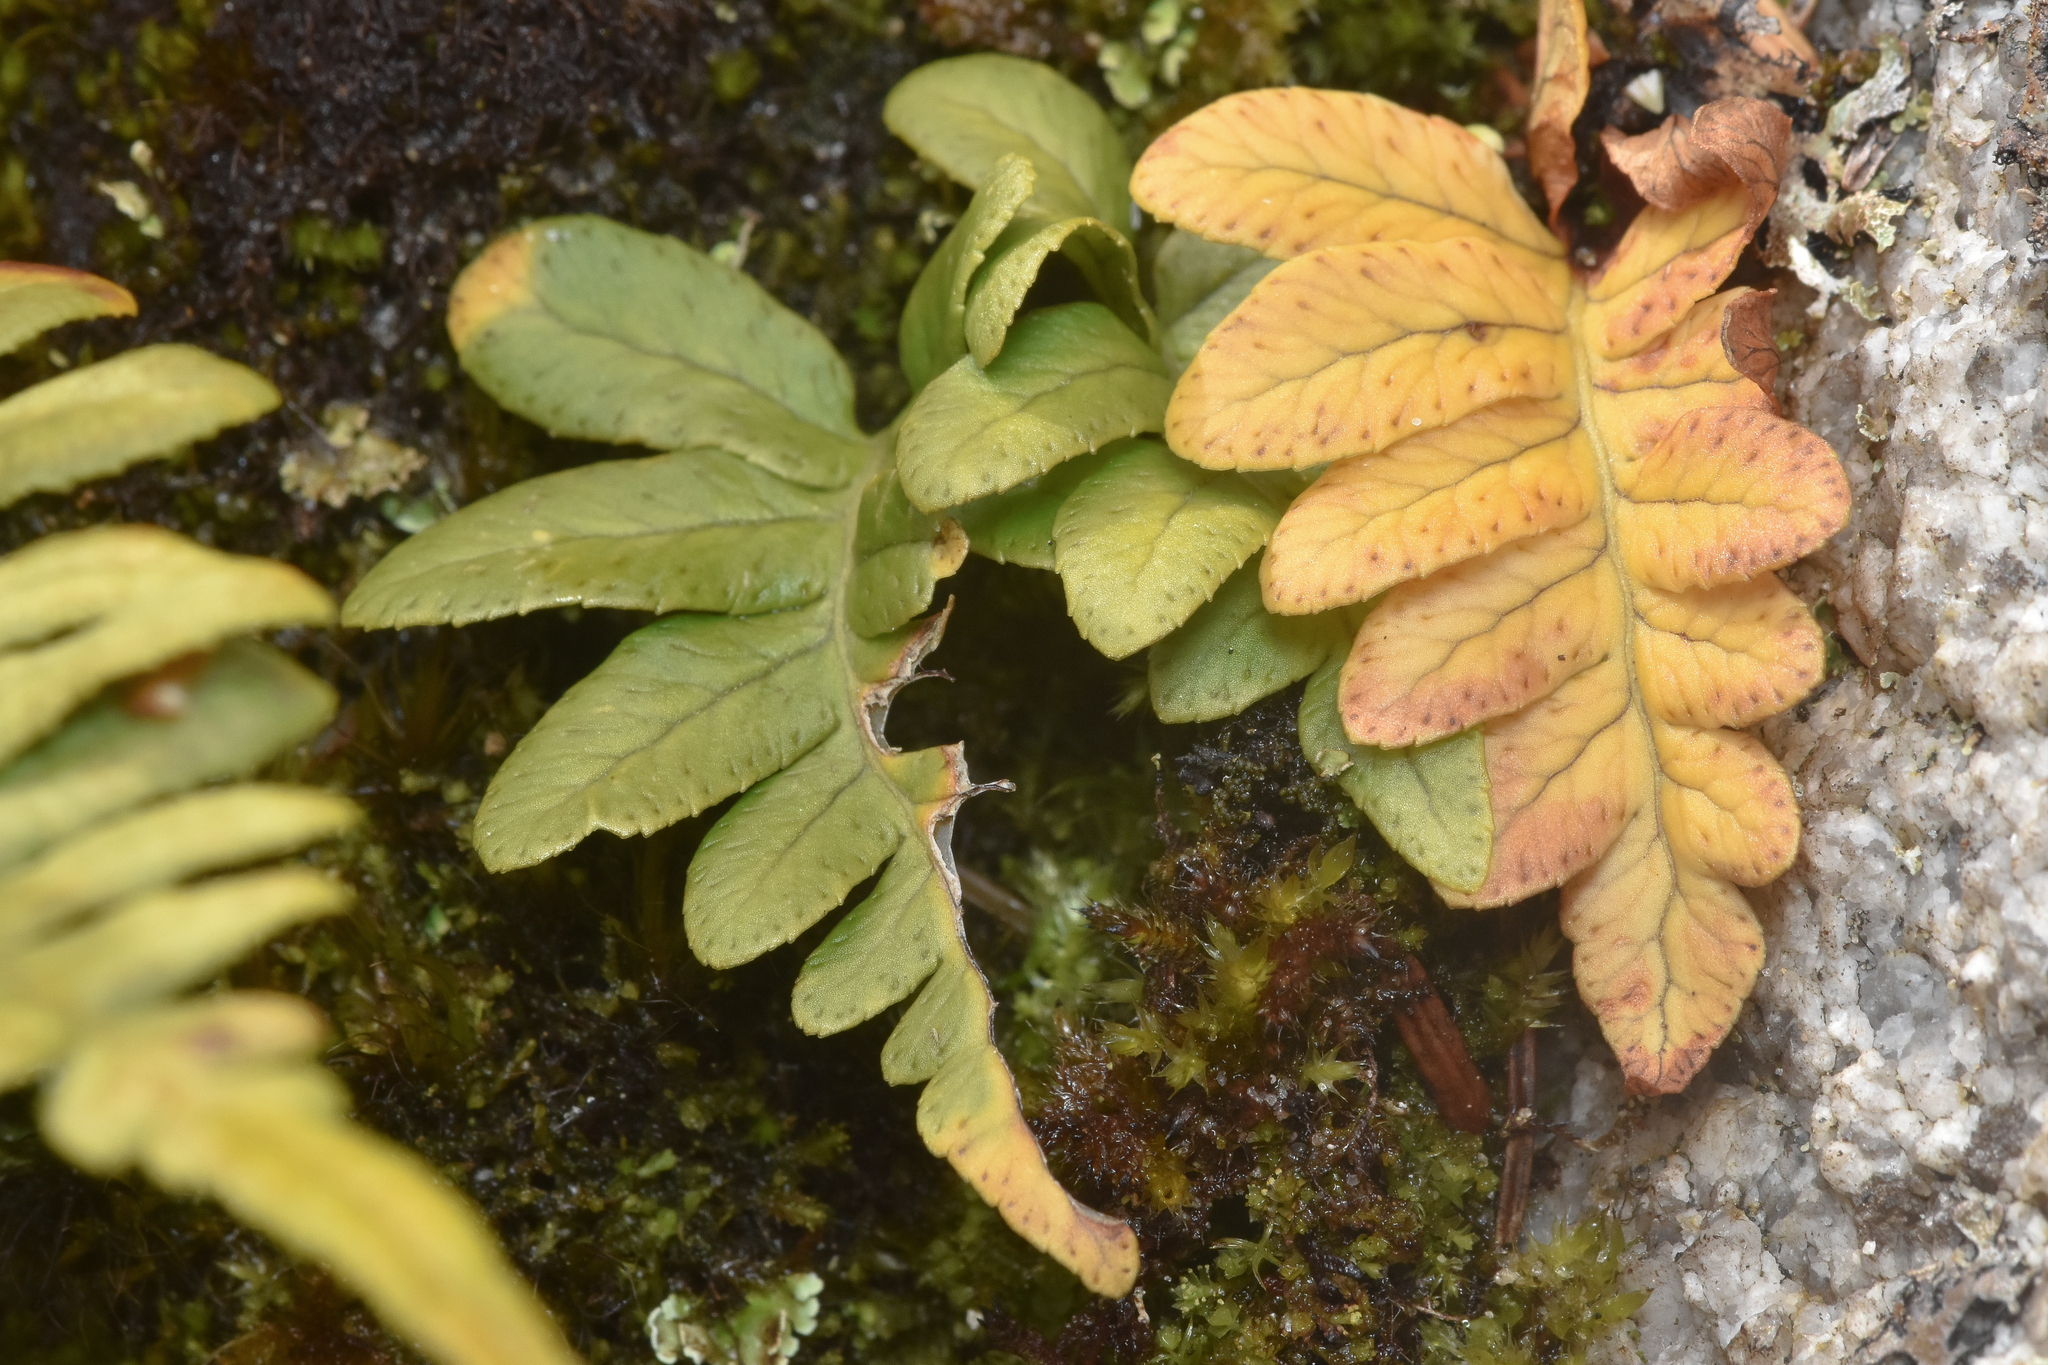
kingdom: Plantae
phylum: Tracheophyta
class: Polypodiopsida
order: Polypodiales
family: Polypodiaceae
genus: Polypodium
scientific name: Polypodium glycyrrhiza
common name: Licorice fern
